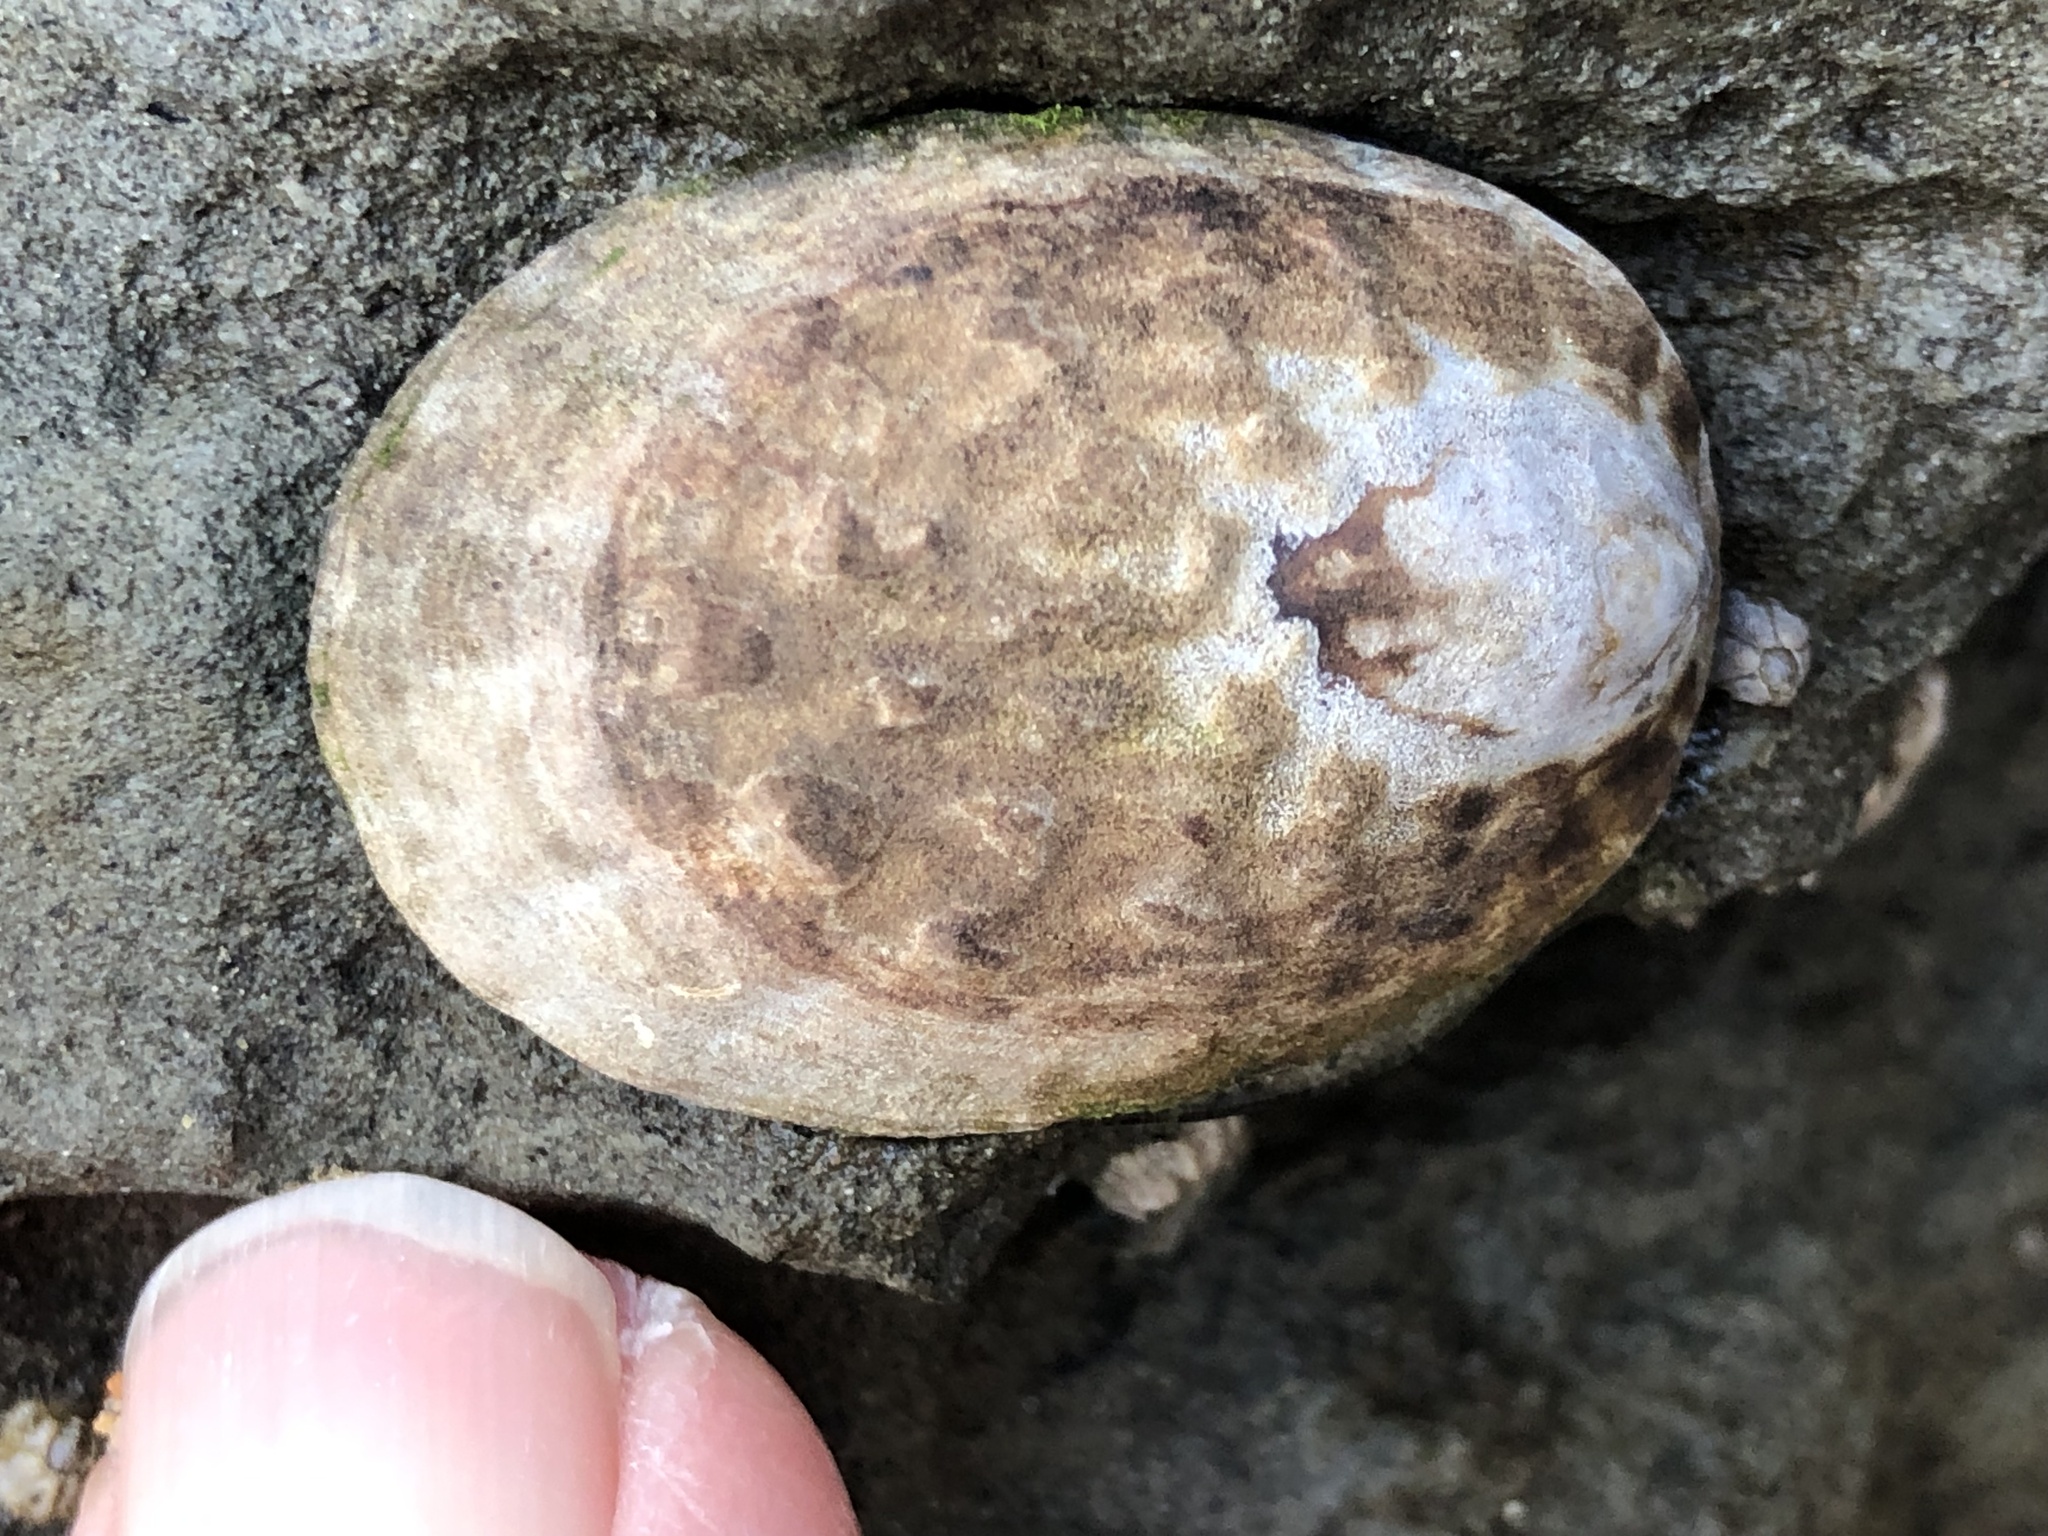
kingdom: Animalia
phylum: Mollusca
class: Gastropoda
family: Lottiidae
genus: Lottia
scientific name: Lottia gigantea
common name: Owl limpet
